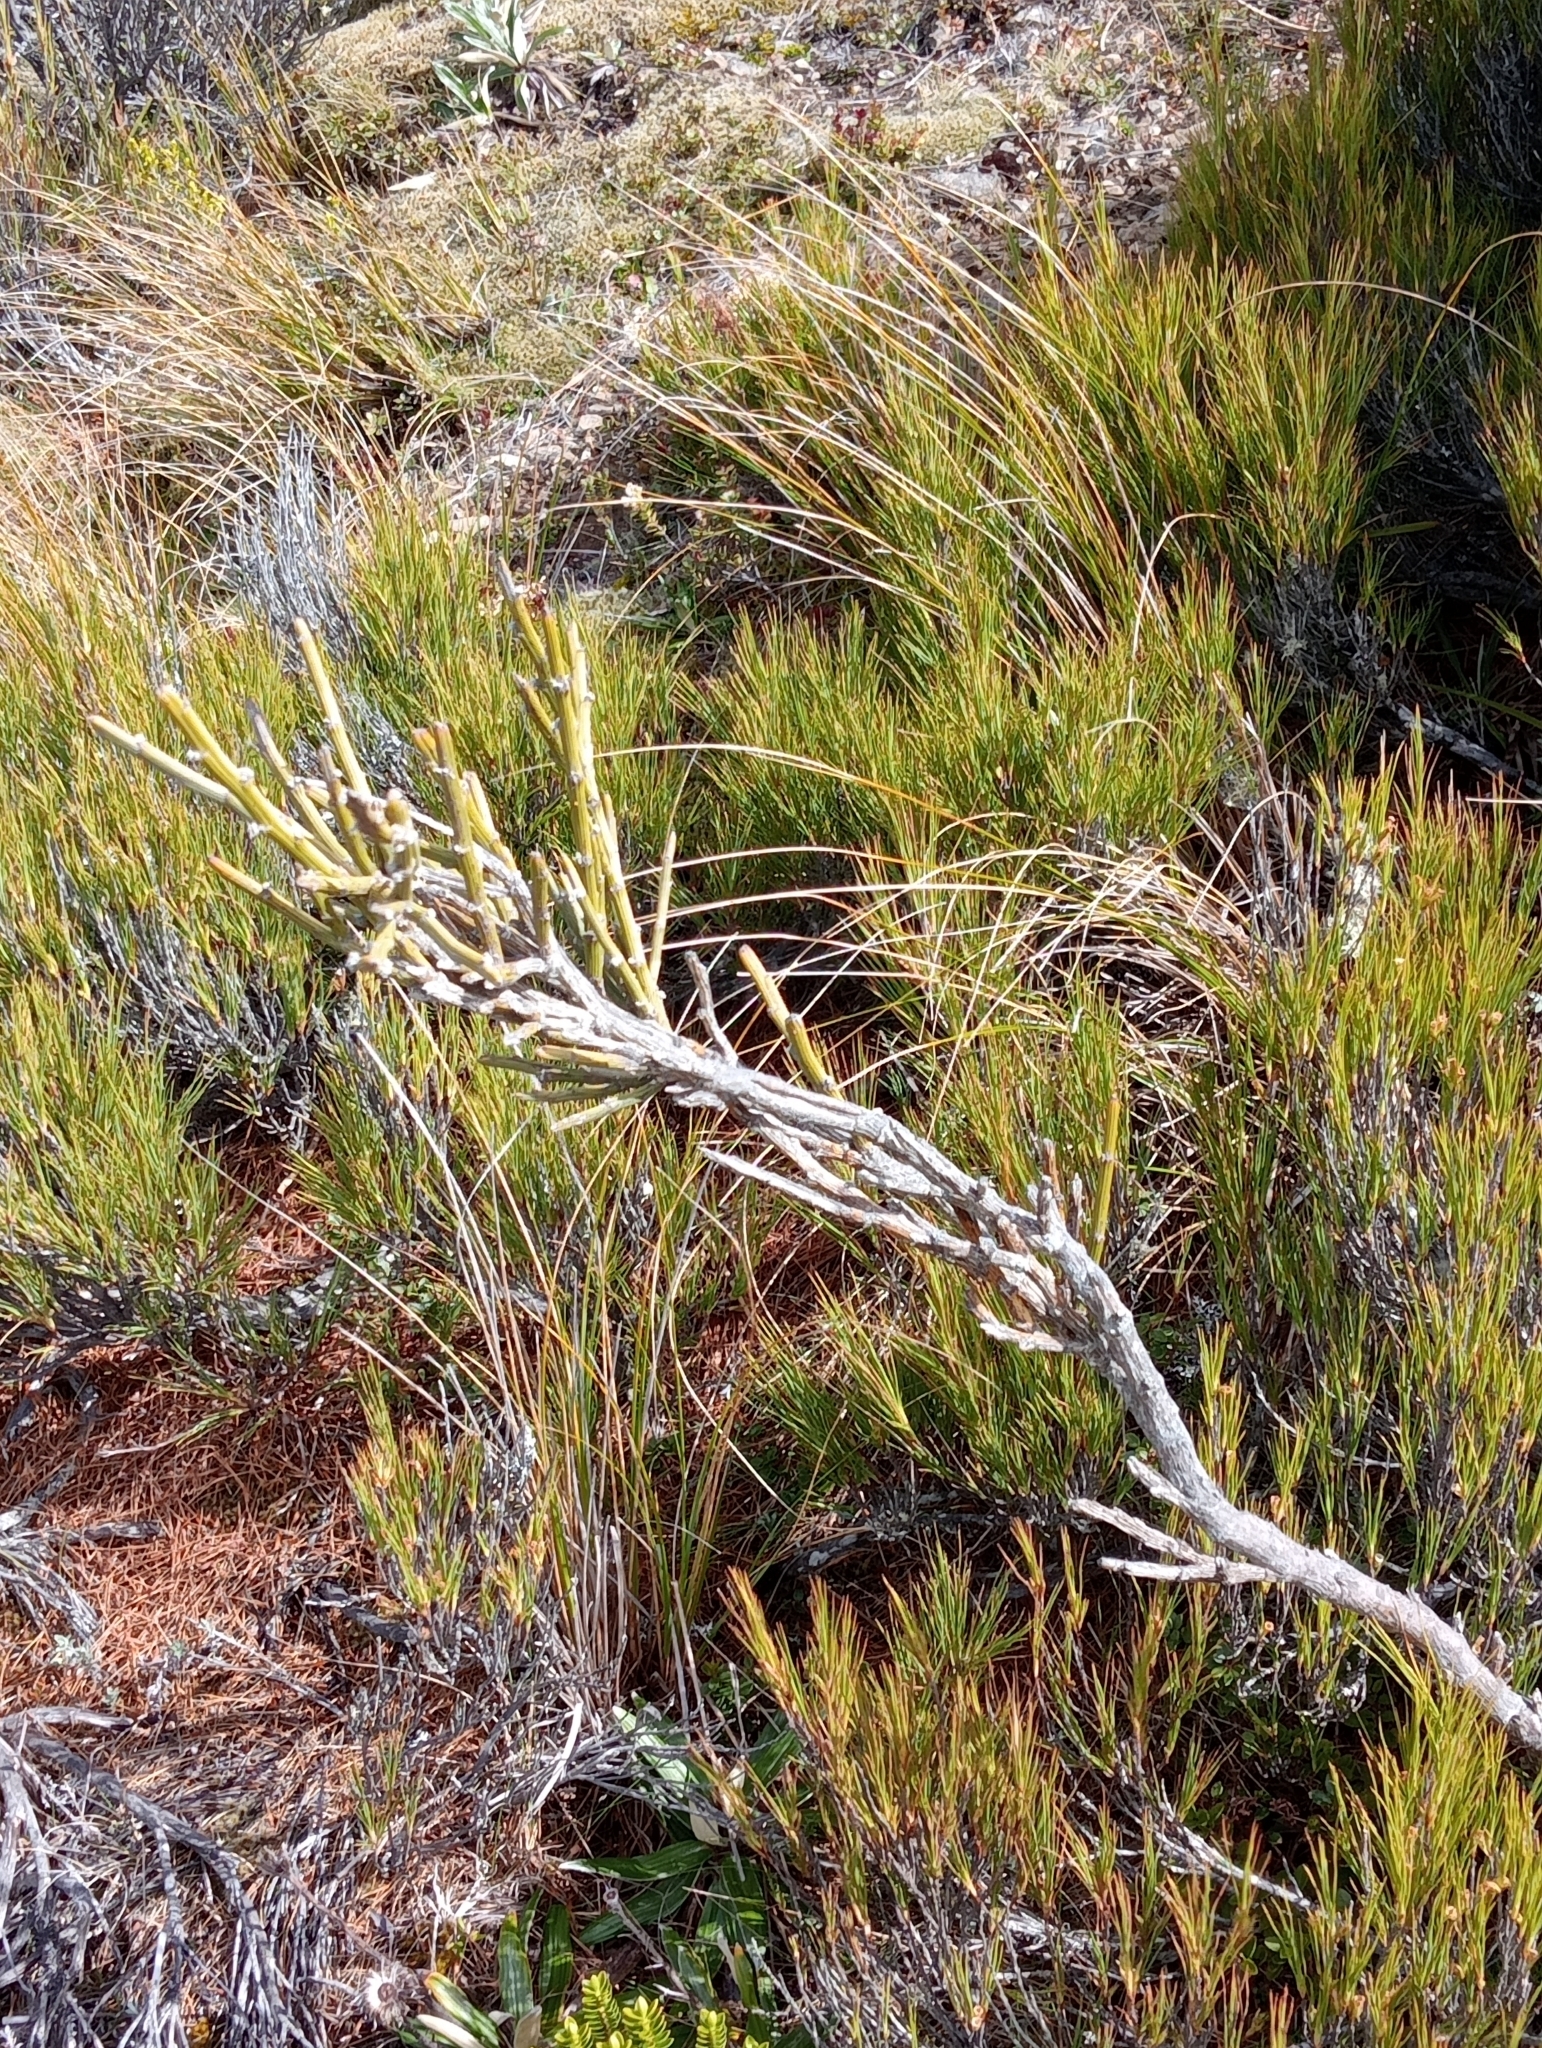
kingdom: Plantae
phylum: Tracheophyta
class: Magnoliopsida
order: Fabales
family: Fabaceae
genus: Carmichaelia
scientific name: Carmichaelia crassicaulis
